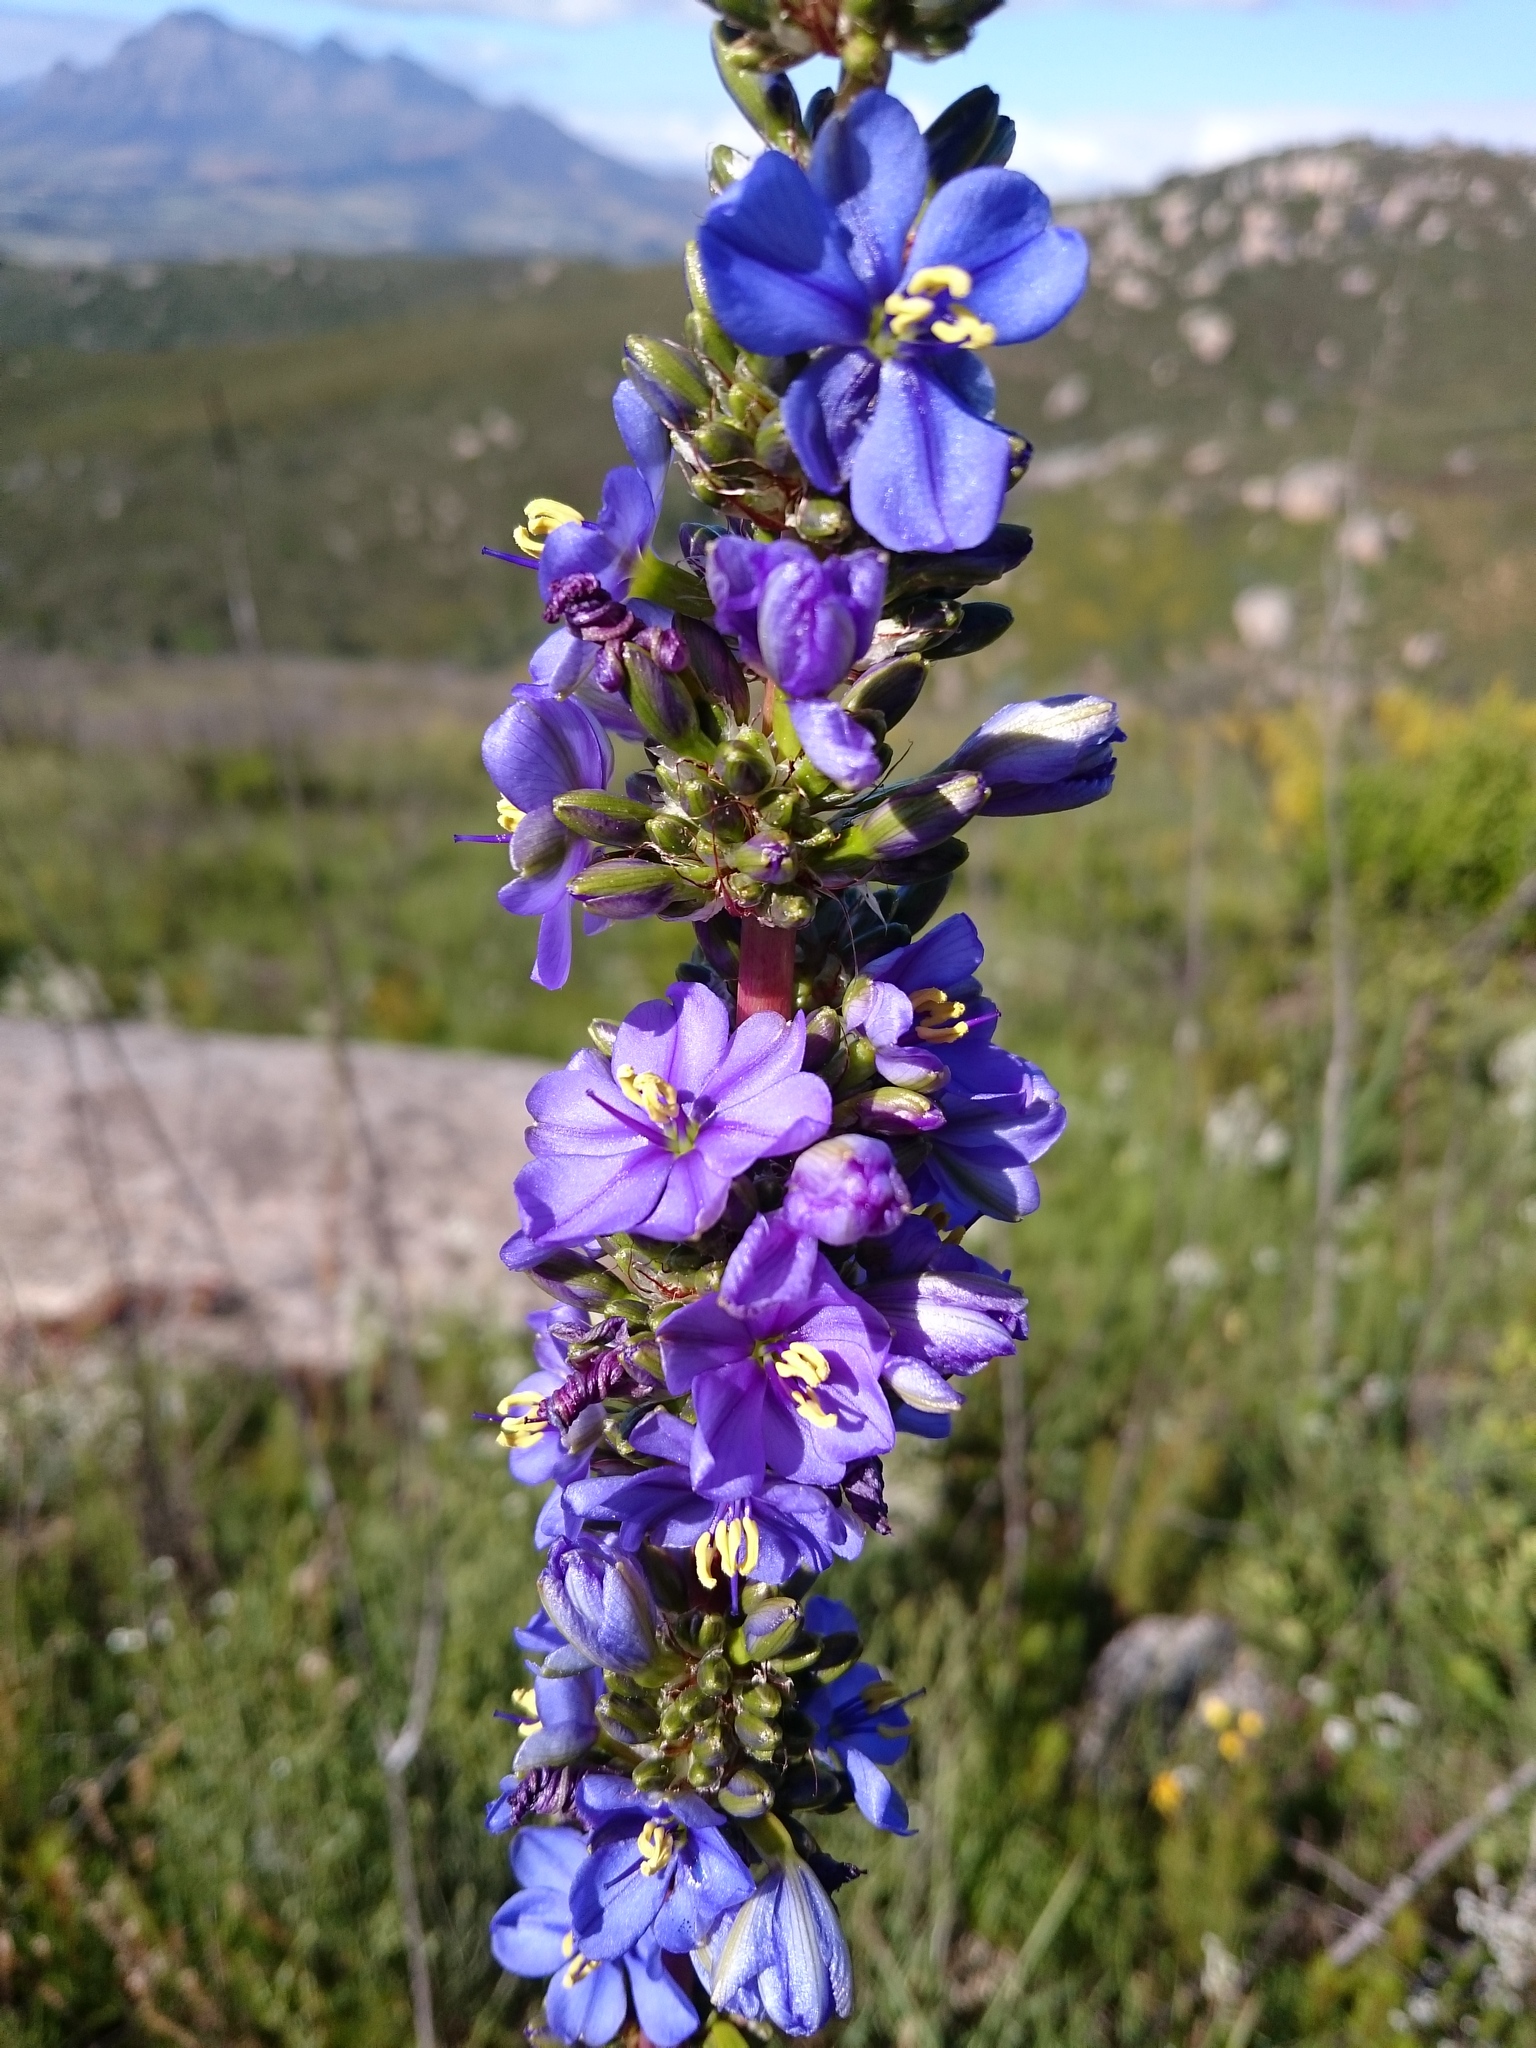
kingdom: Plantae
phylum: Tracheophyta
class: Liliopsida
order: Asparagales
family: Iridaceae
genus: Aristea
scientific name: Aristea capitata
